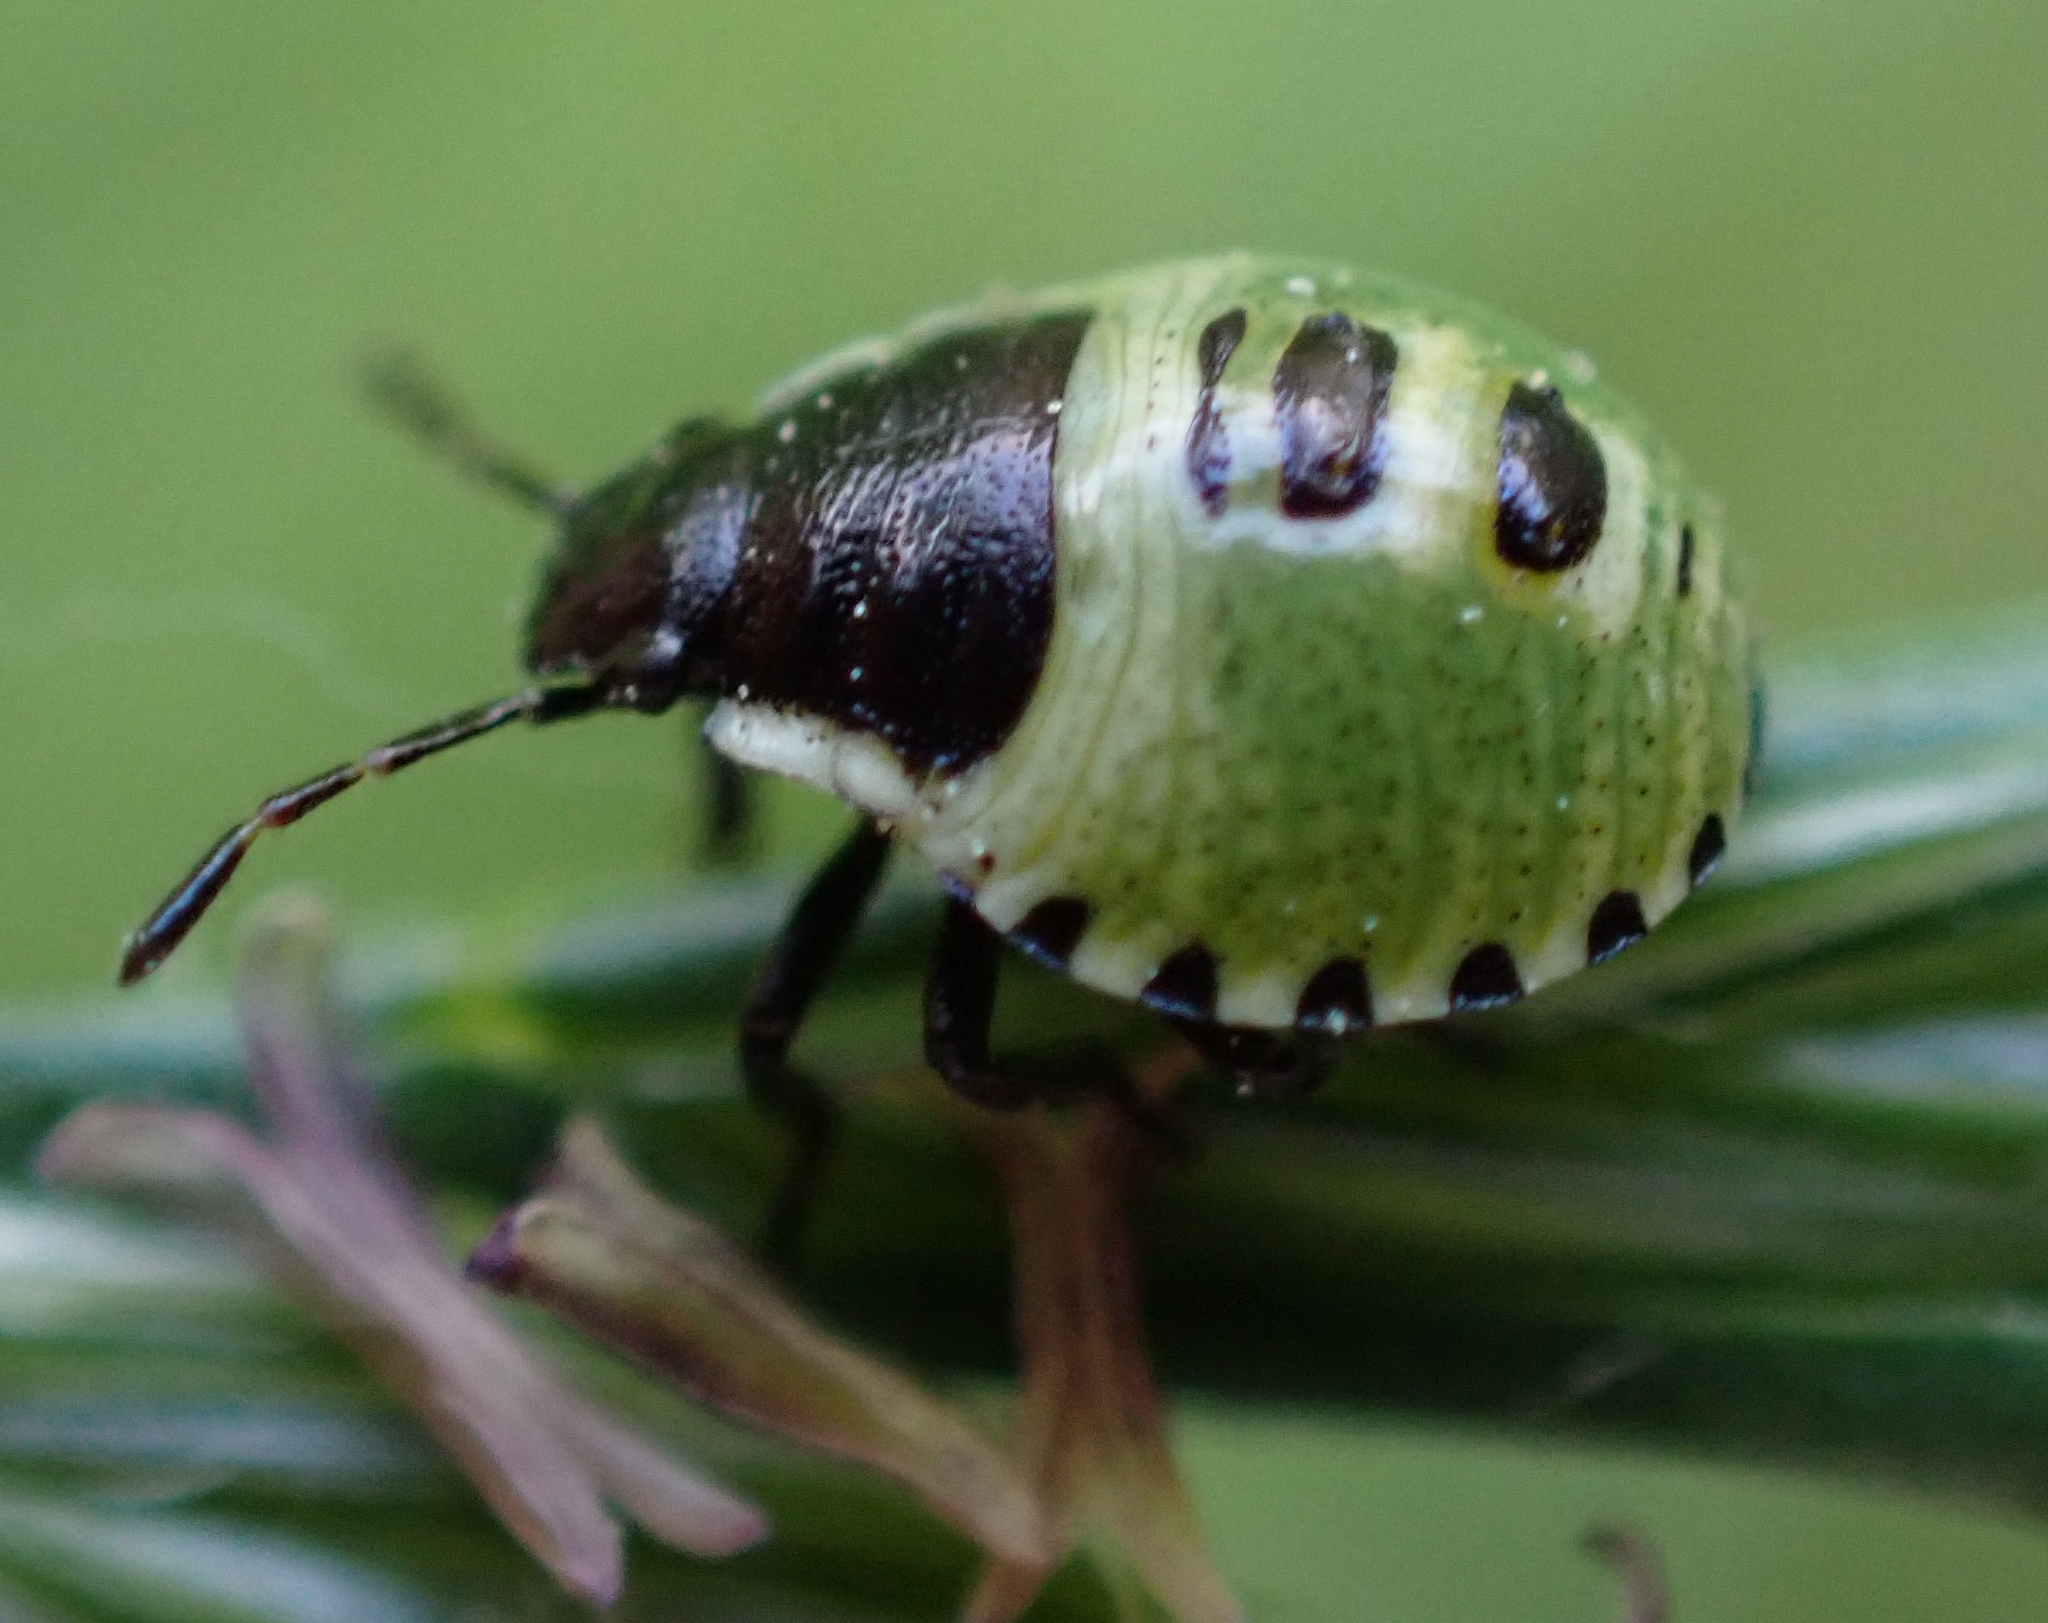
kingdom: Animalia
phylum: Arthropoda
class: Insecta
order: Hemiptera
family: Pentatomidae
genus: Palomena
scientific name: Palomena prasina
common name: Green shieldbug
